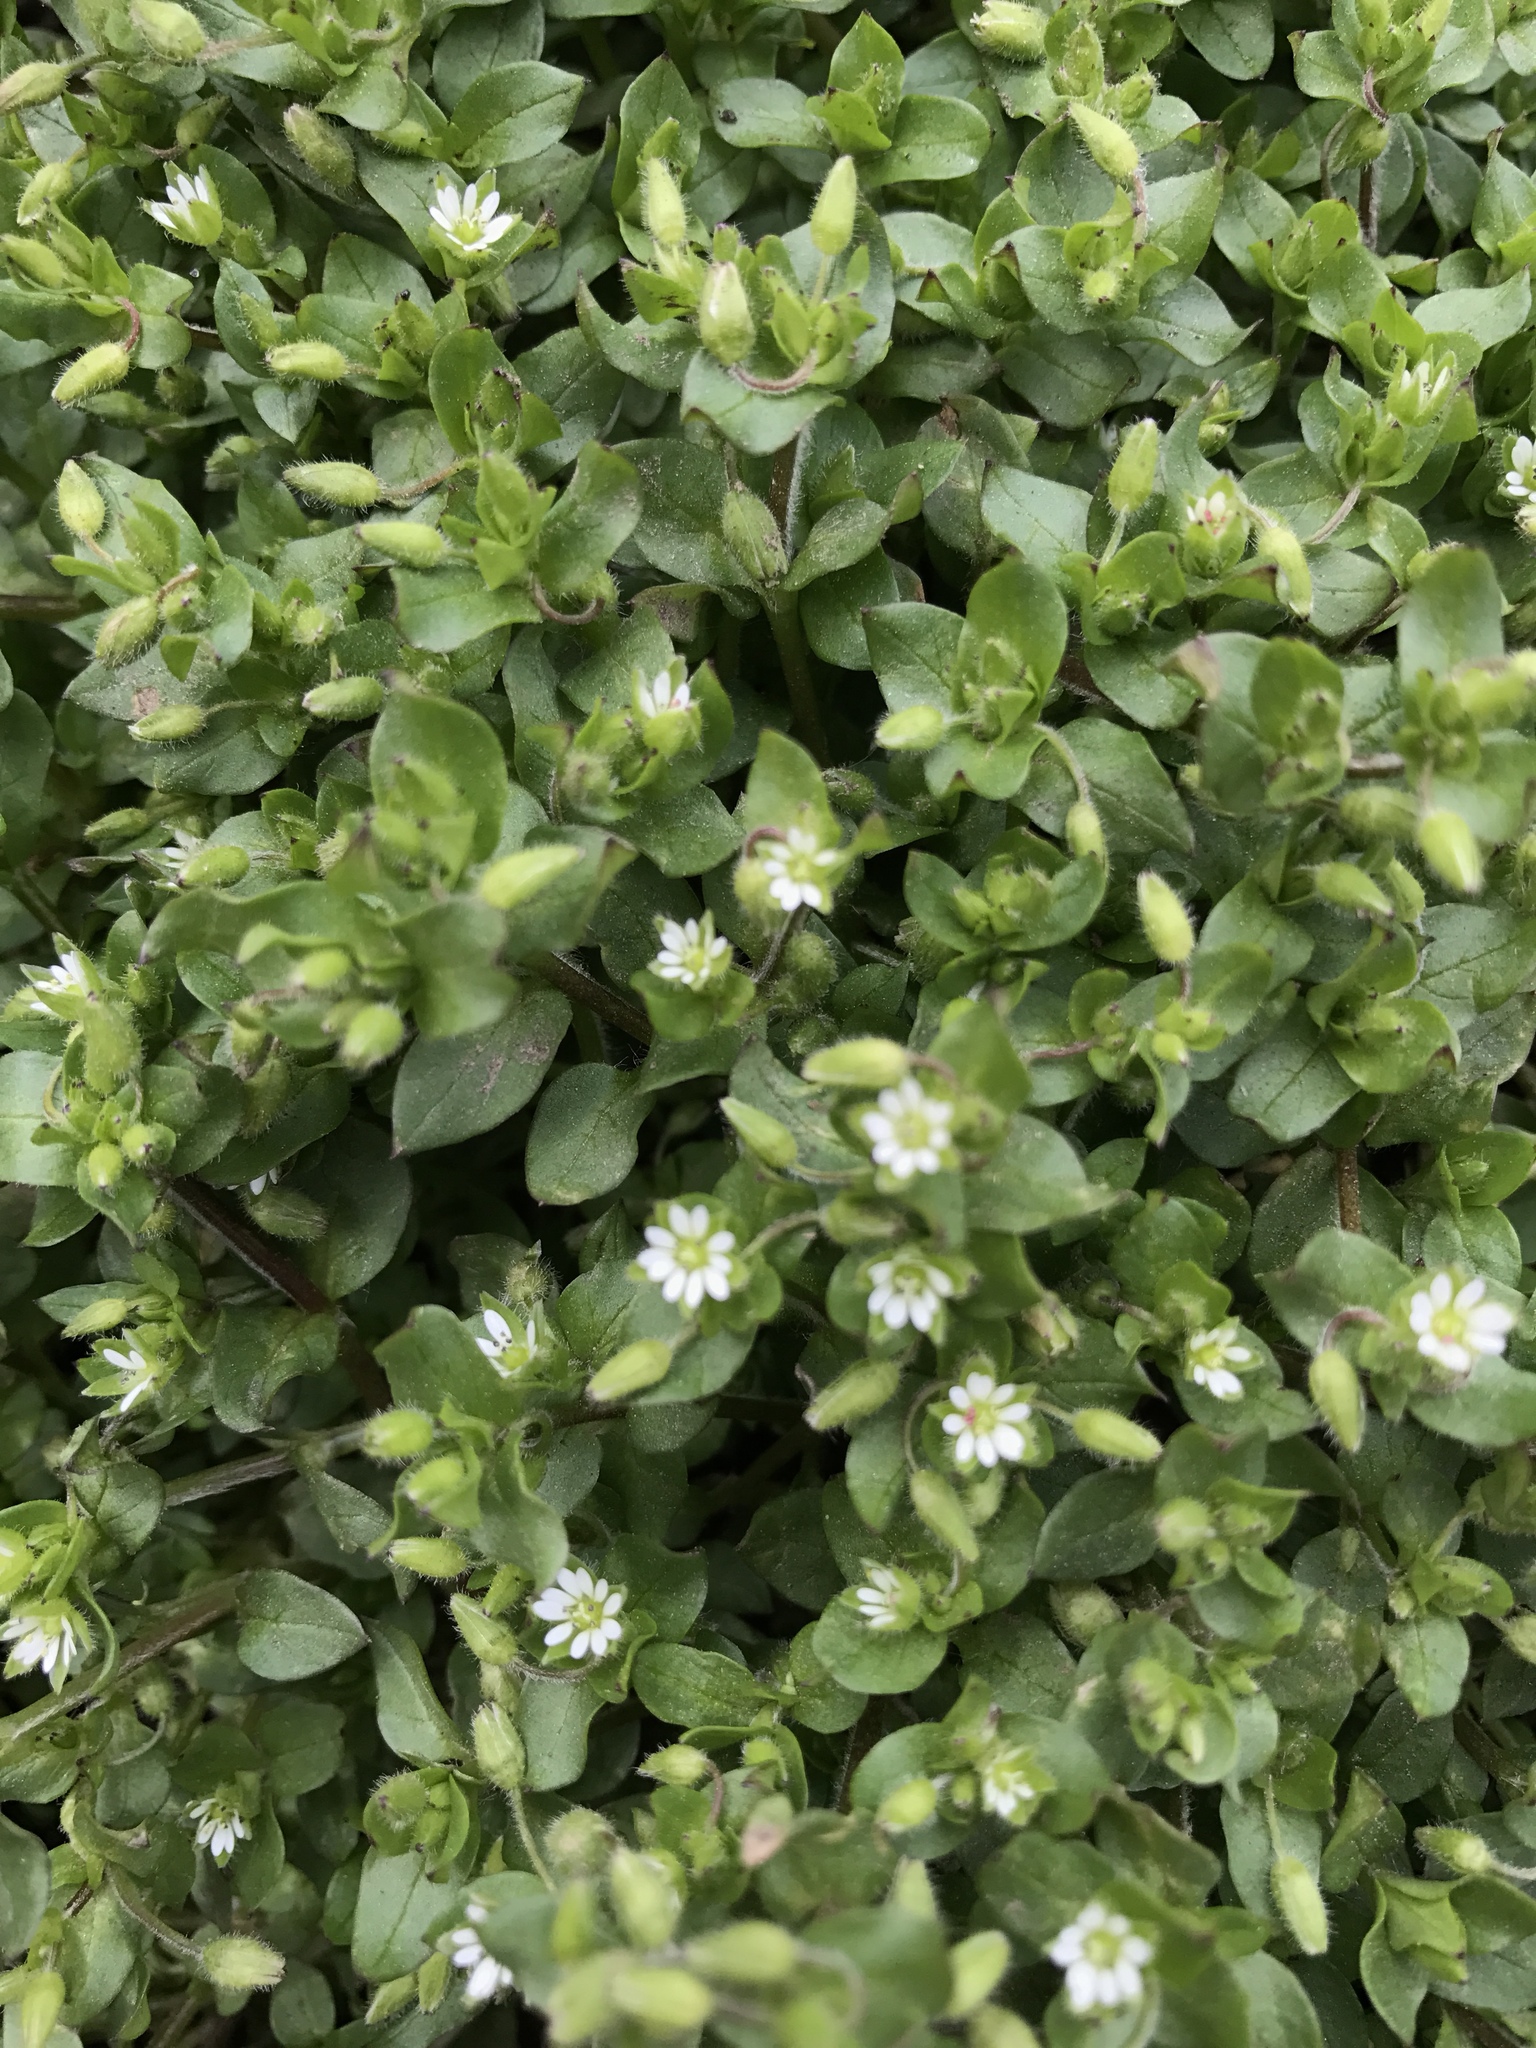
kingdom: Plantae
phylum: Tracheophyta
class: Magnoliopsida
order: Caryophyllales
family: Caryophyllaceae
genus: Stellaria
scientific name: Stellaria media
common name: Common chickweed
